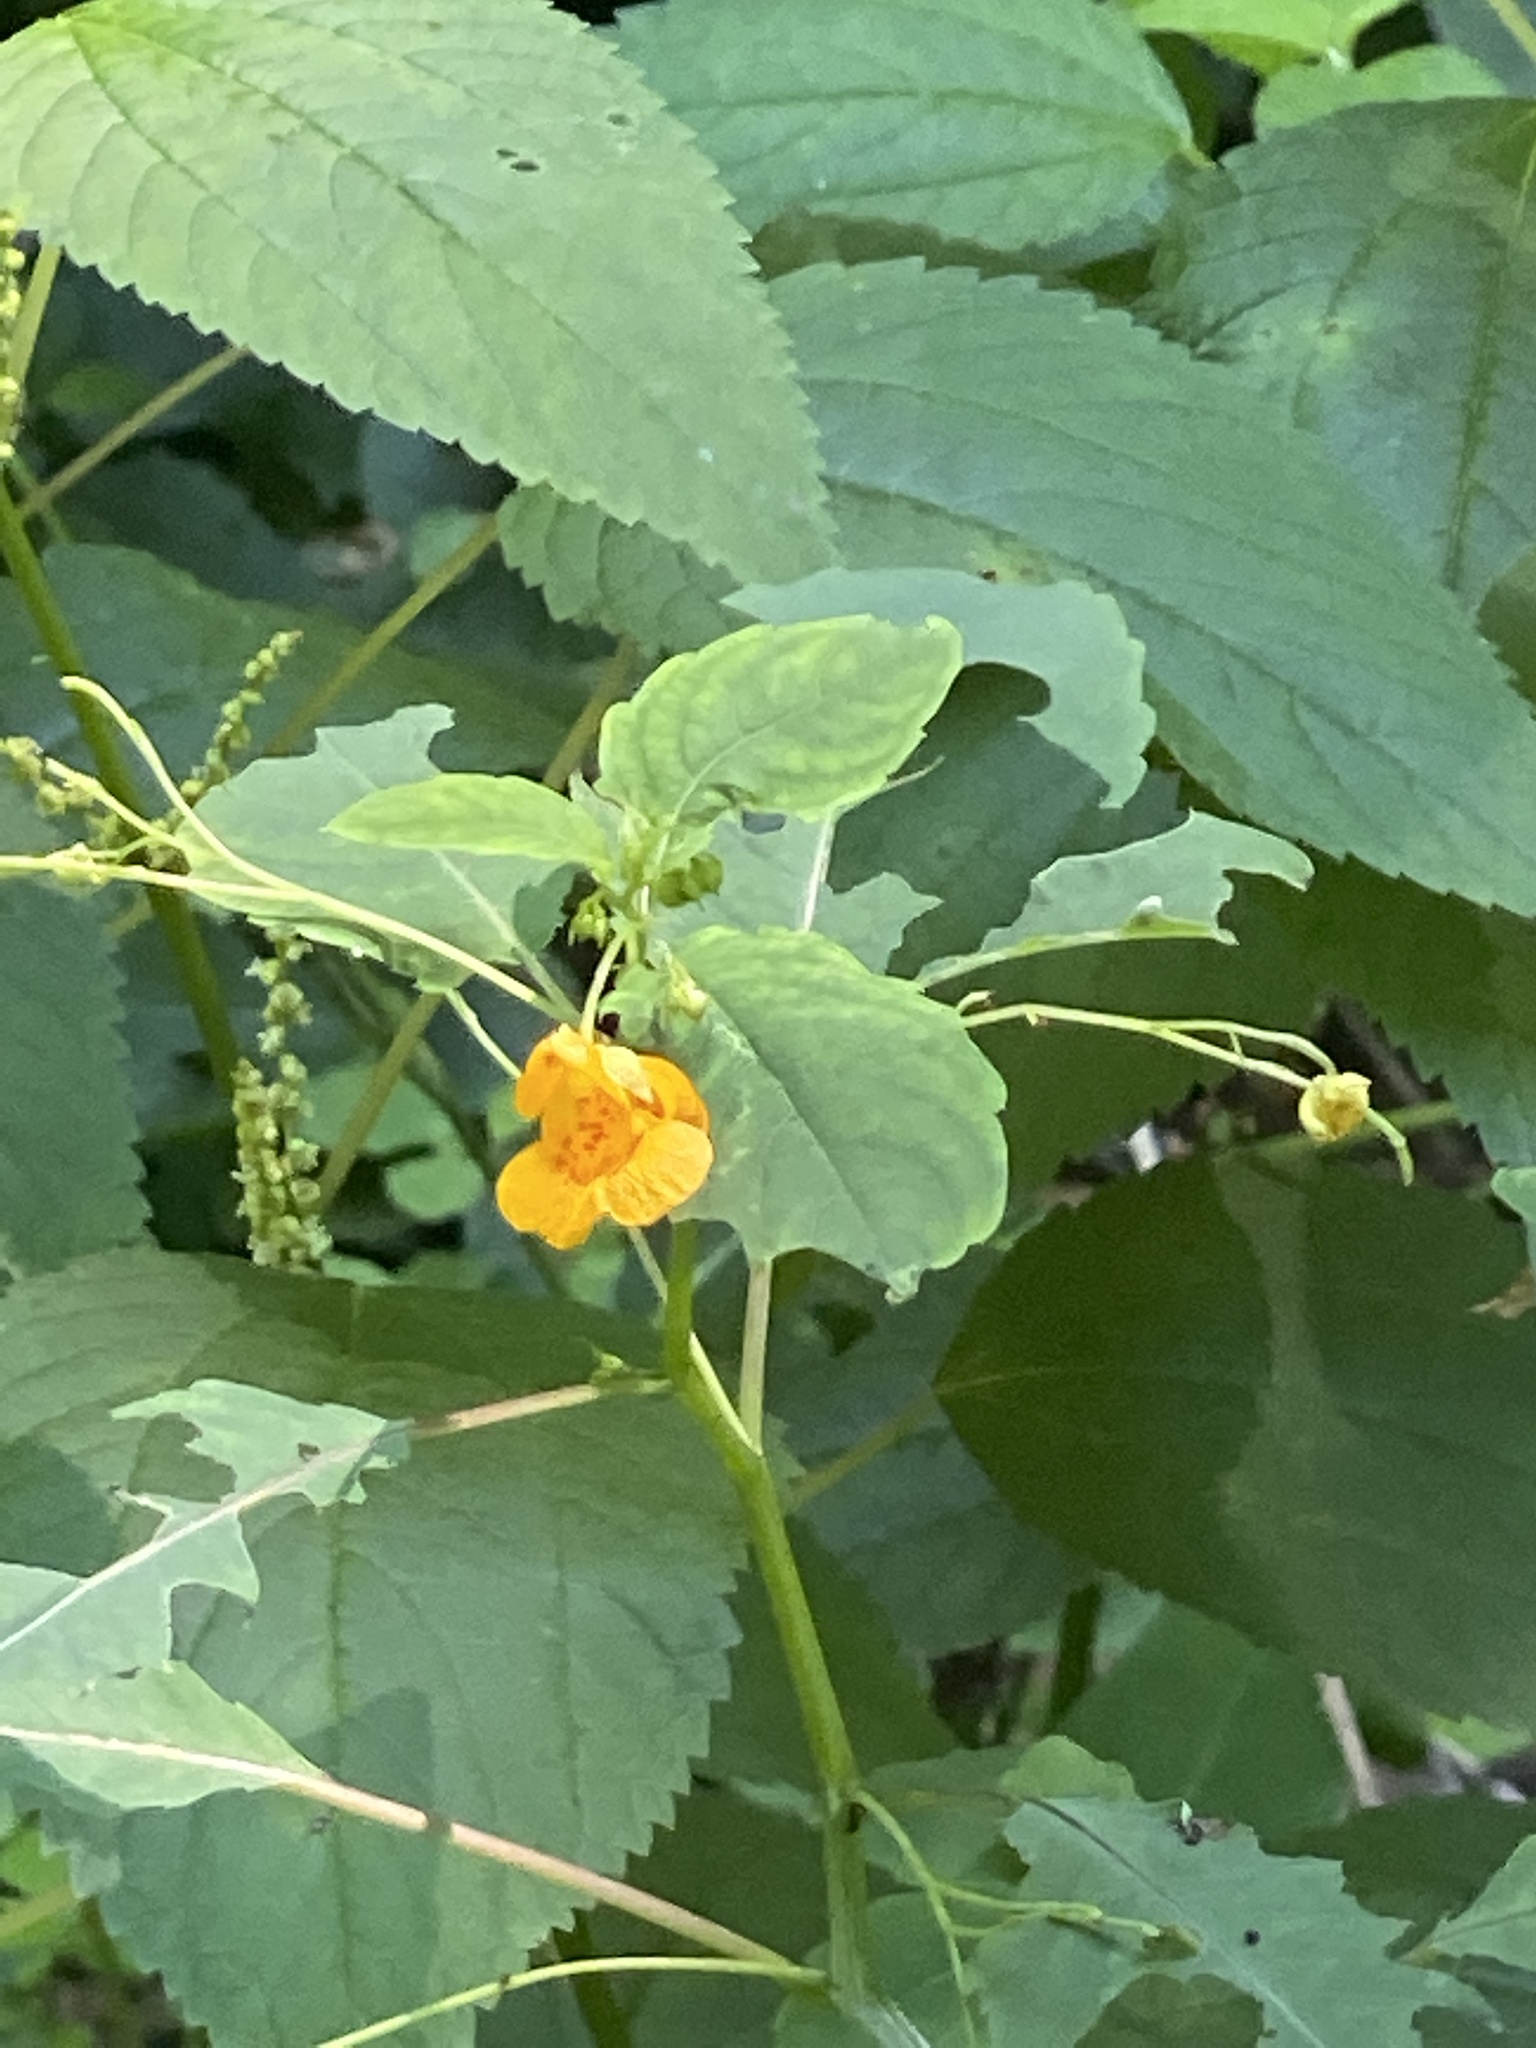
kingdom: Plantae
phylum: Tracheophyta
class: Magnoliopsida
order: Ericales
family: Balsaminaceae
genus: Impatiens
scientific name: Impatiens capensis
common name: Orange balsam
